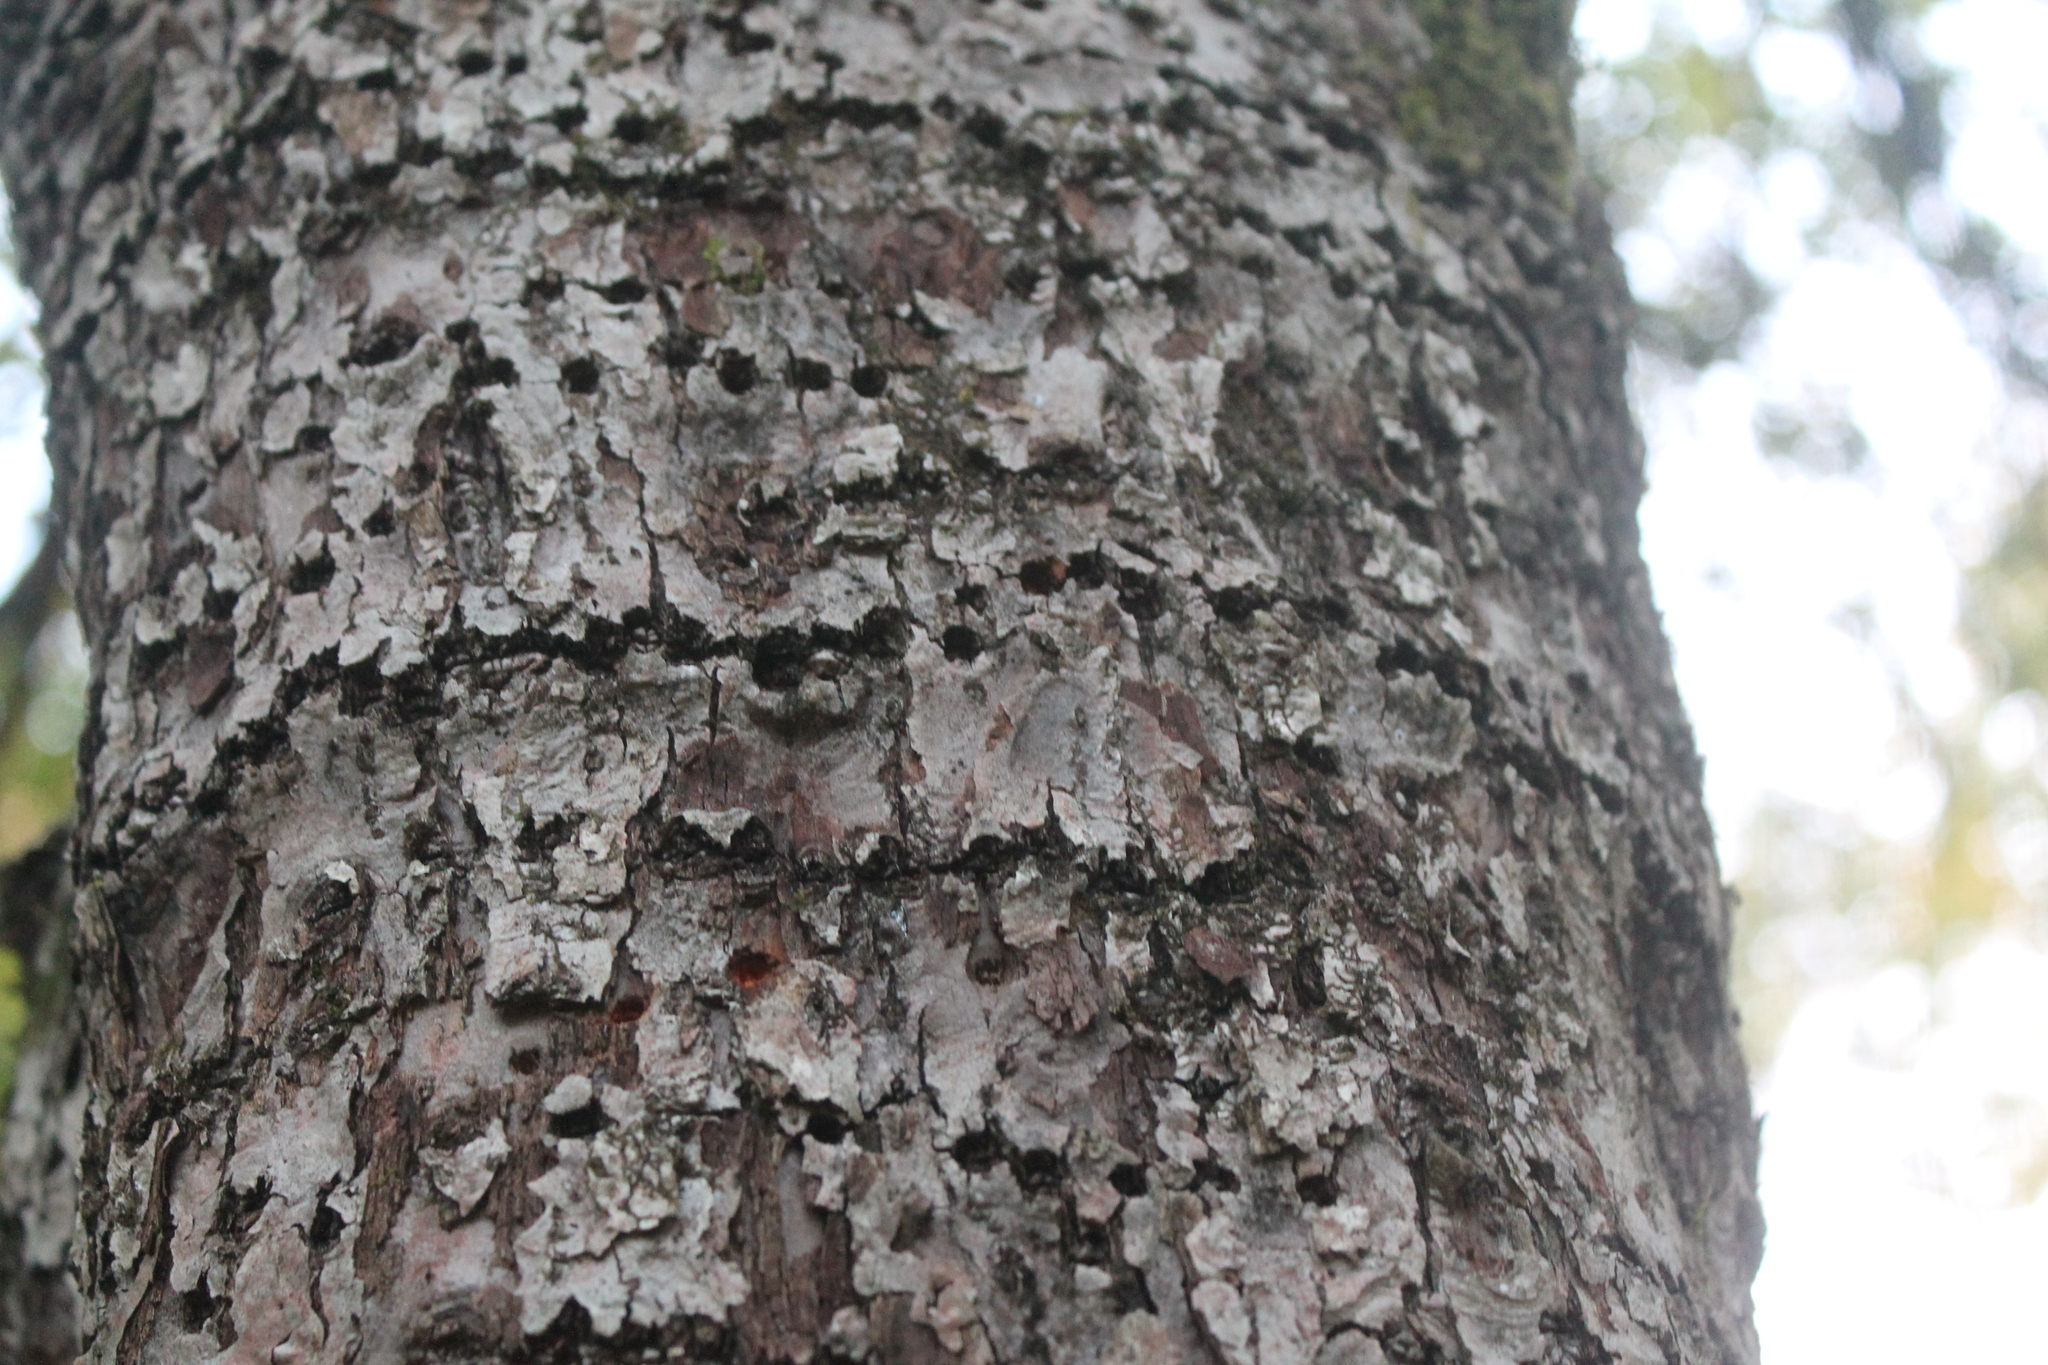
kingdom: Animalia
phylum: Chordata
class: Aves
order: Piciformes
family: Picidae
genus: Sphyrapicus
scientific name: Sphyrapicus varius
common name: Yellow-bellied sapsucker
